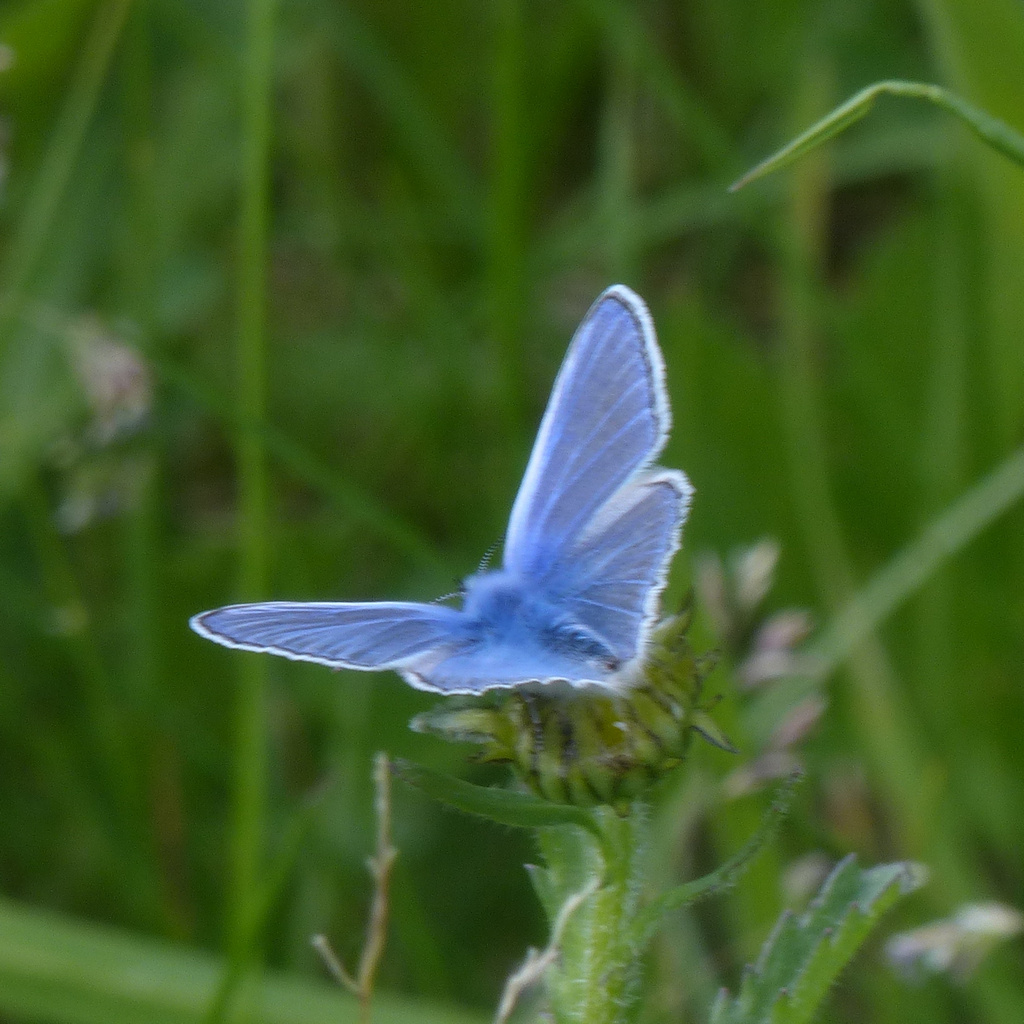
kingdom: Animalia
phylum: Arthropoda
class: Insecta
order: Lepidoptera
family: Lycaenidae
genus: Polyommatus
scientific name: Polyommatus icarus
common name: Common blue
